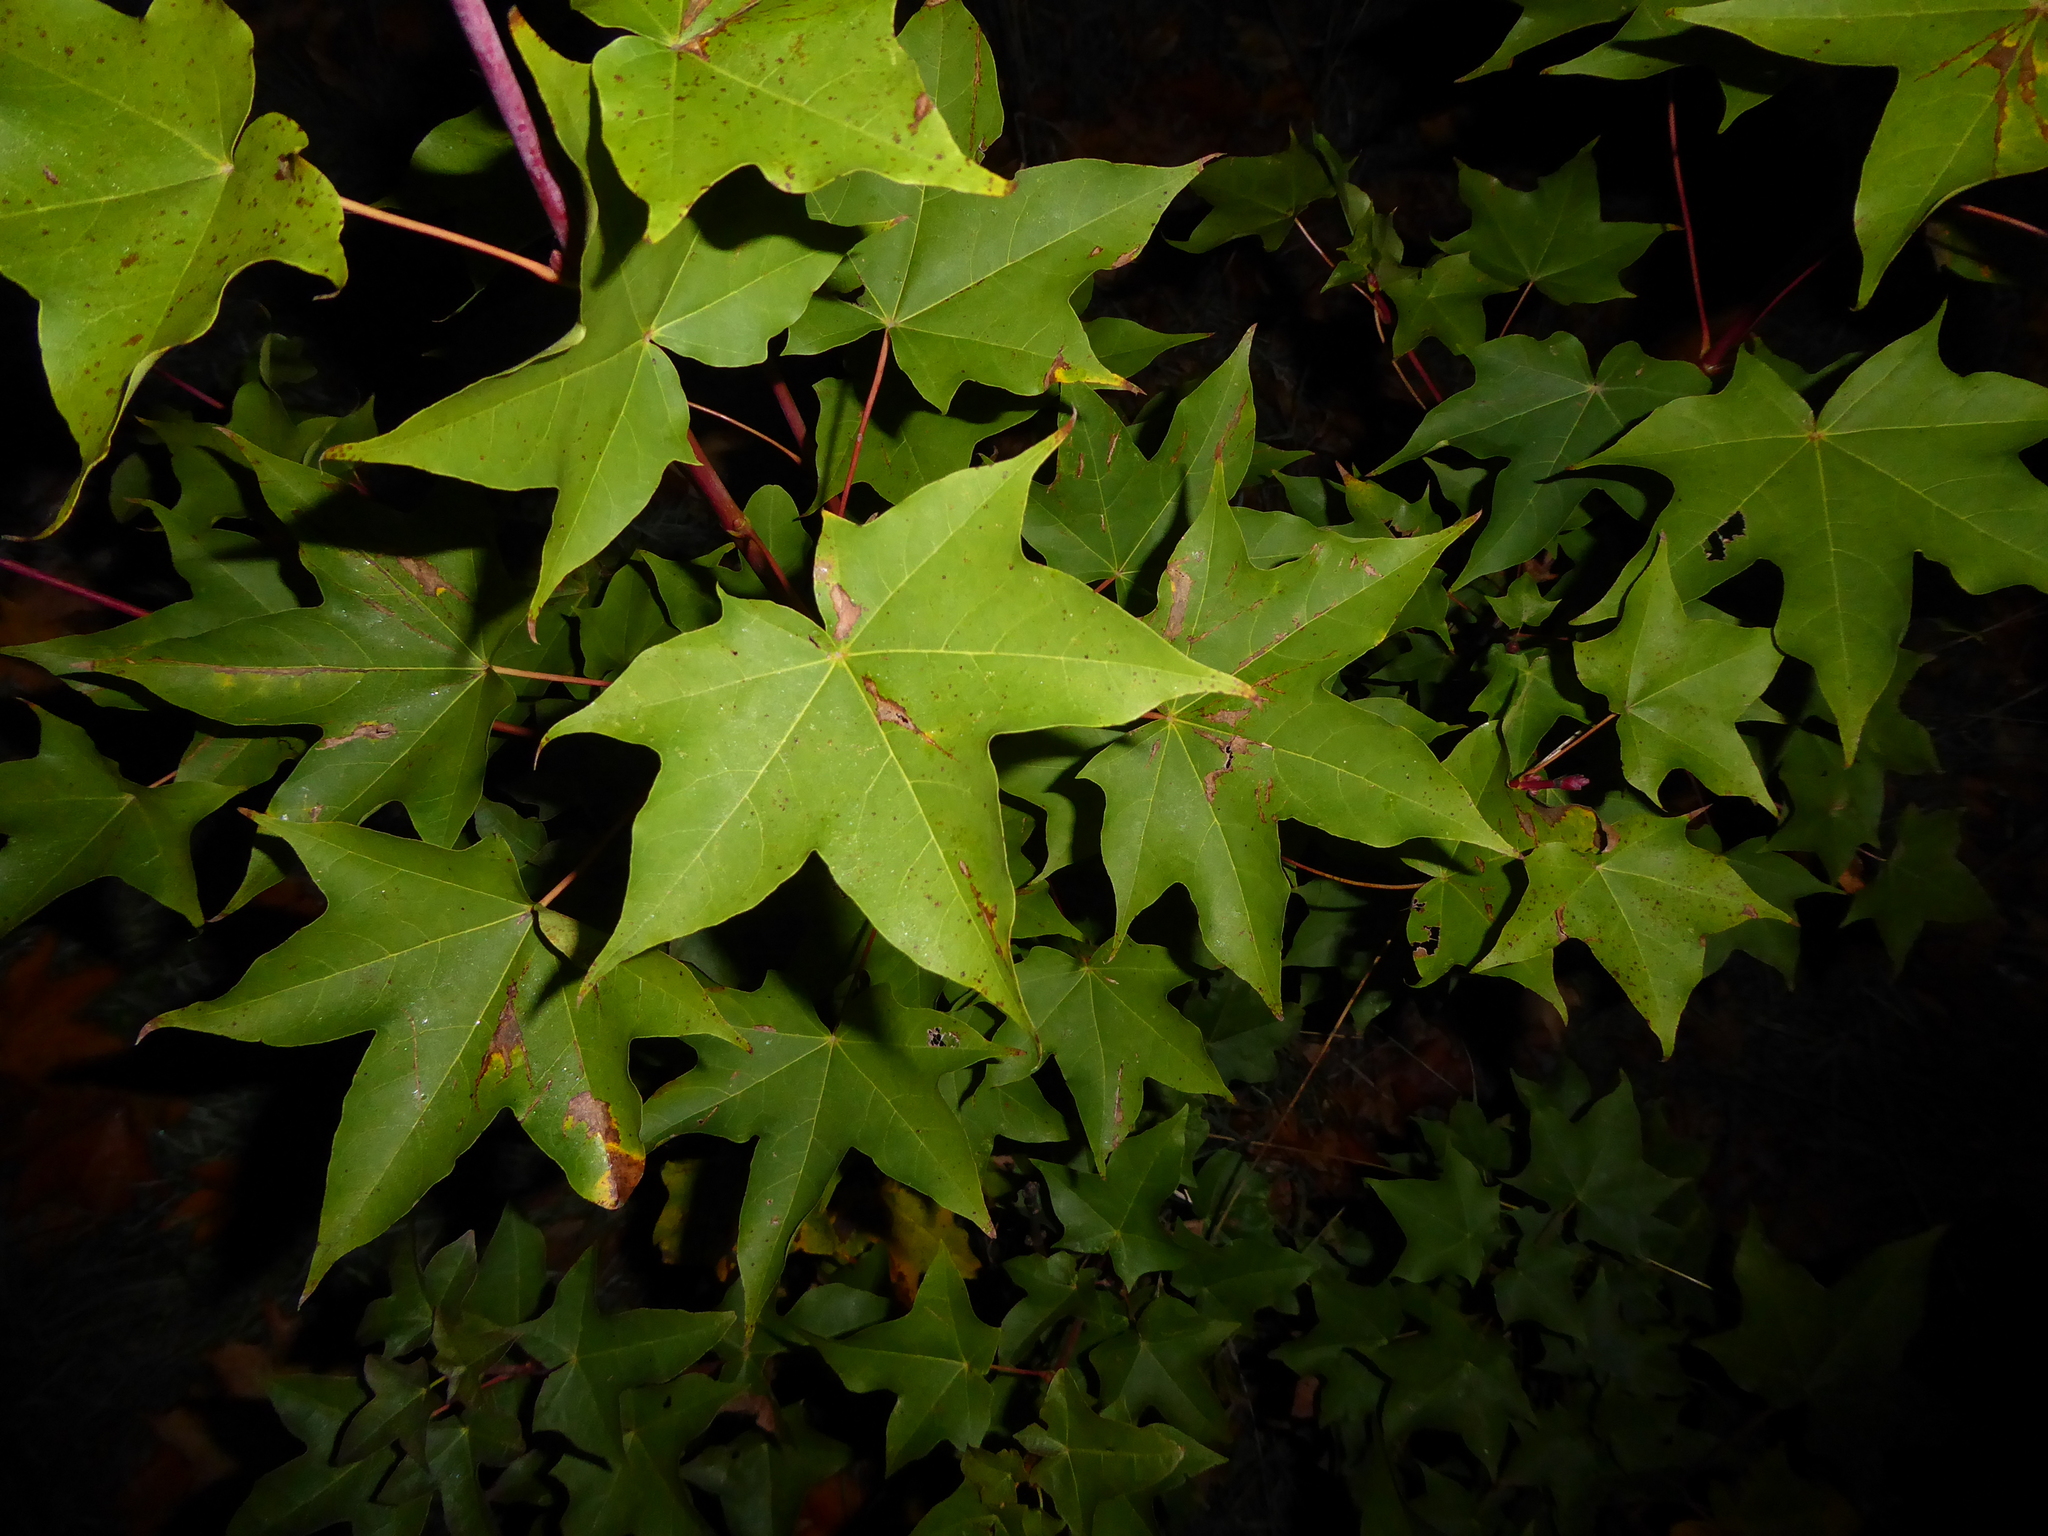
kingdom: Plantae
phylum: Tracheophyta
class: Magnoliopsida
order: Sapindales
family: Sapindaceae
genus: Acer
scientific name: Acer pictum
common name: The painted maple
